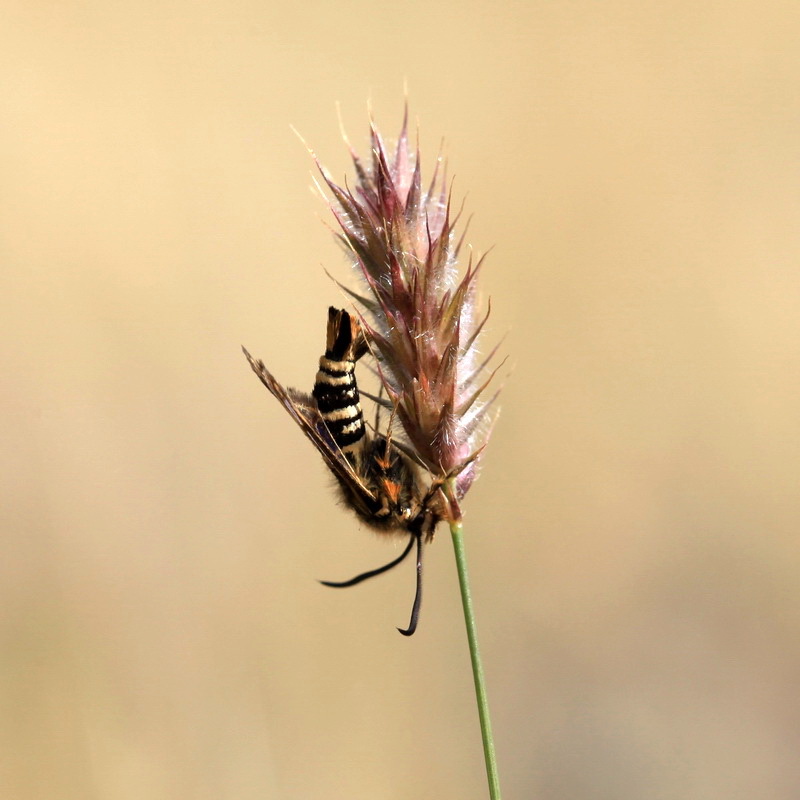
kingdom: Animalia
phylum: Arthropoda
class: Insecta
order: Lepidoptera
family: Sesiidae
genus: Bembecia
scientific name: Bembecia puella
